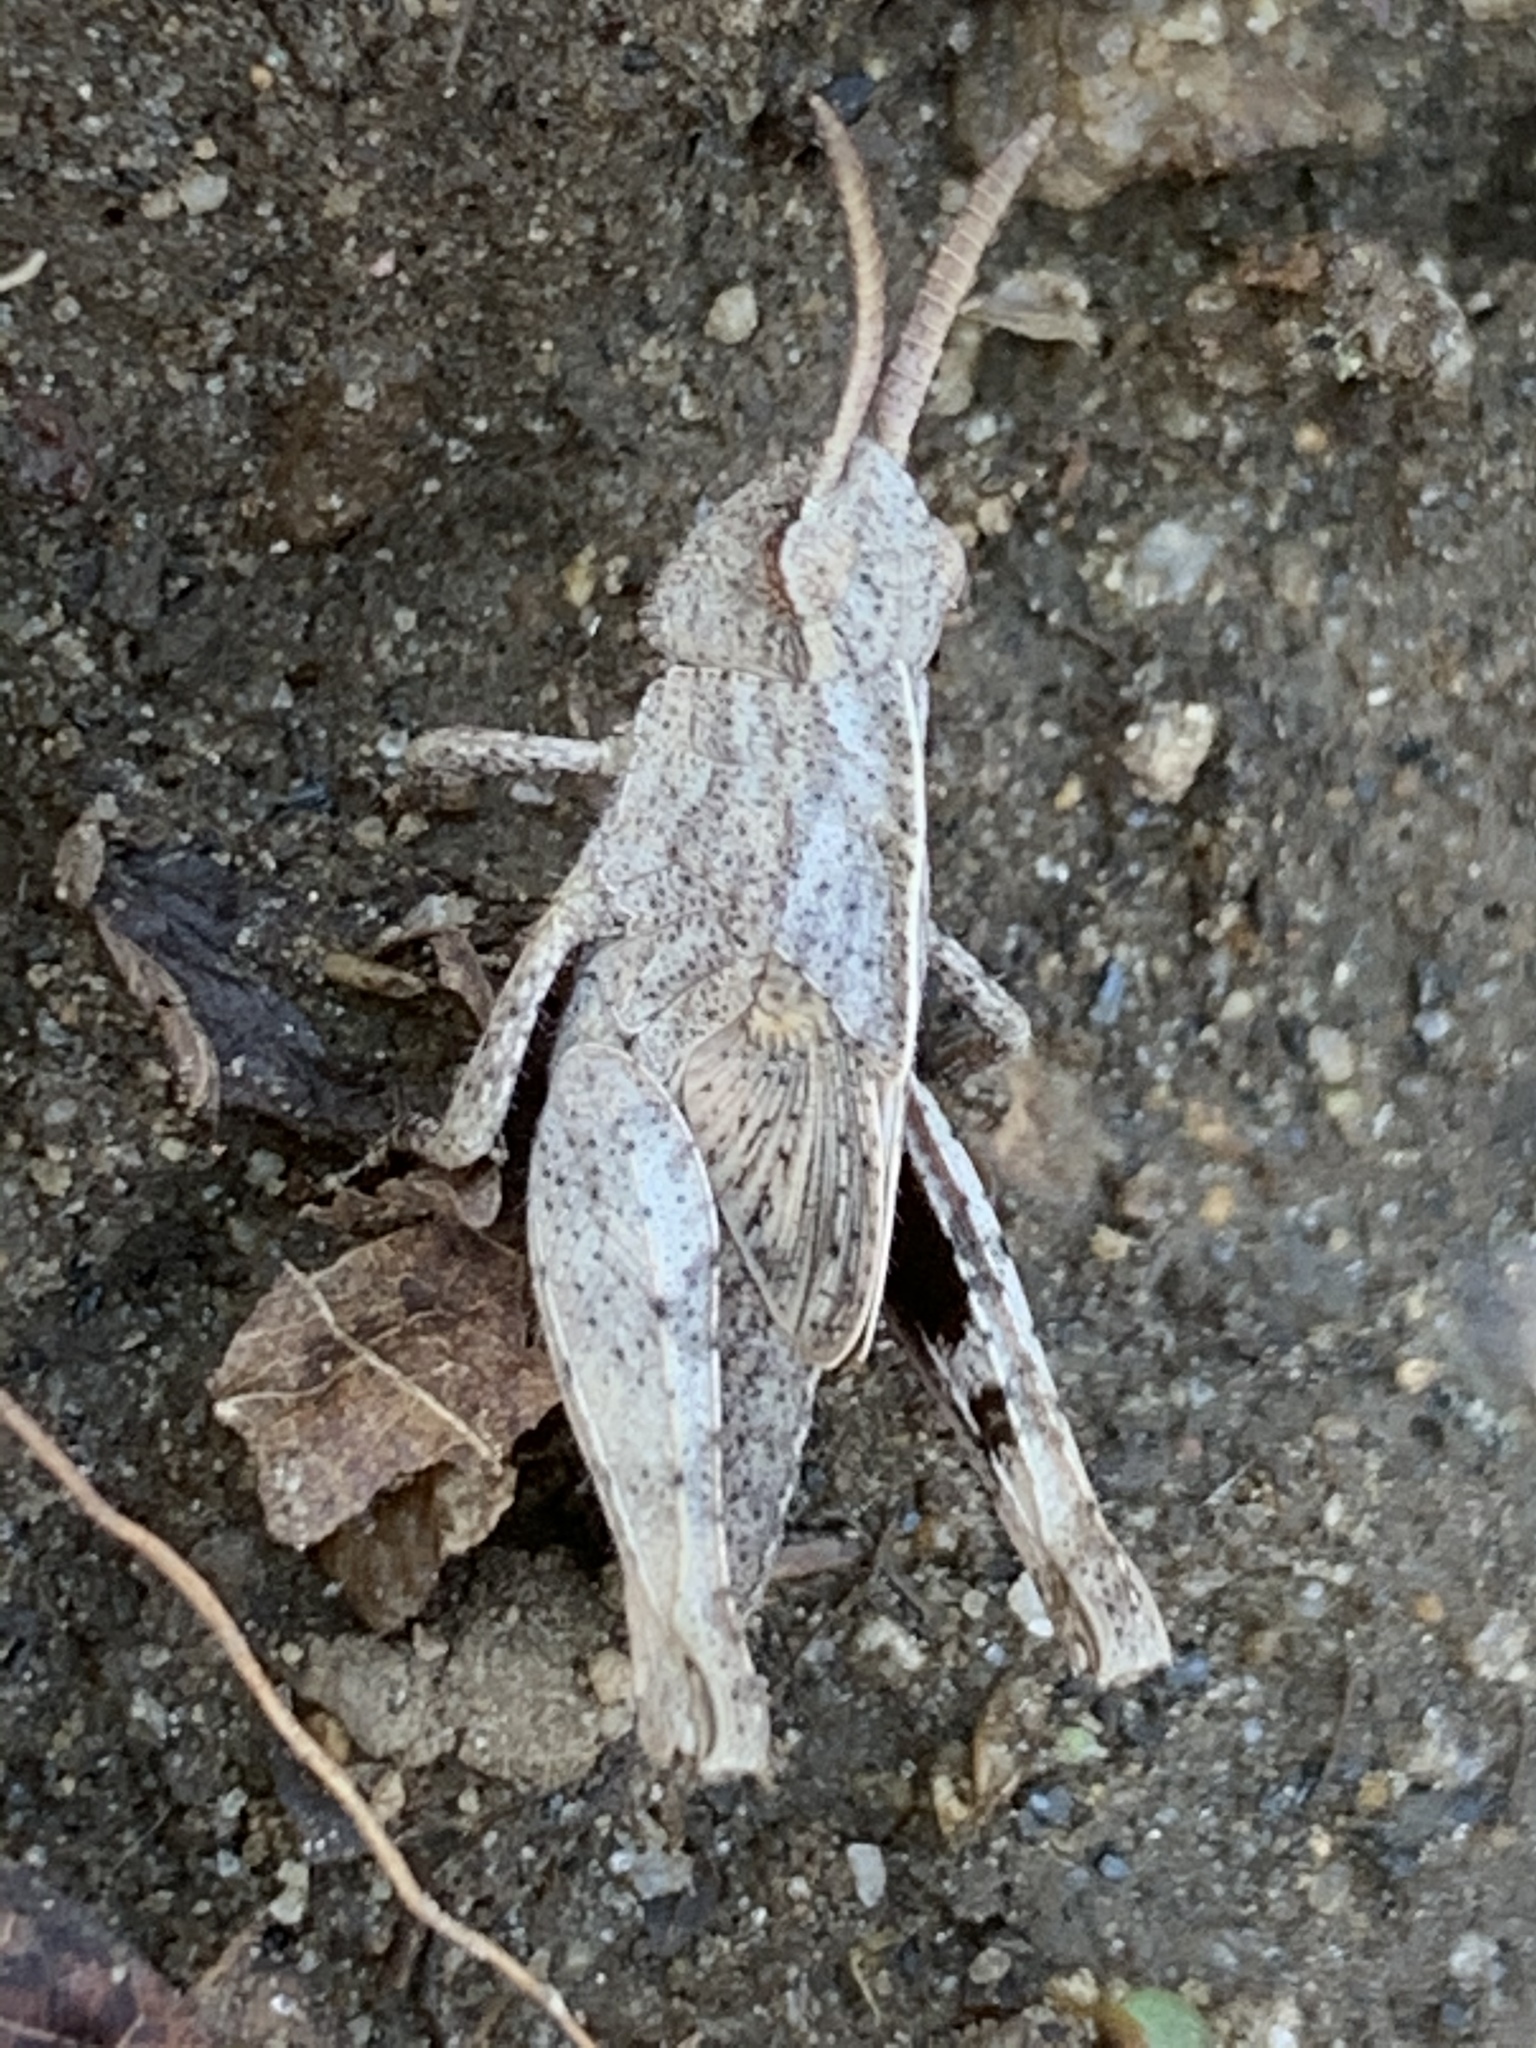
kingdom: Animalia
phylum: Arthropoda
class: Insecta
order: Orthoptera
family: Acrididae
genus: Chortophaga
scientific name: Chortophaga viridifasciata
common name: Green-striped grasshopper
